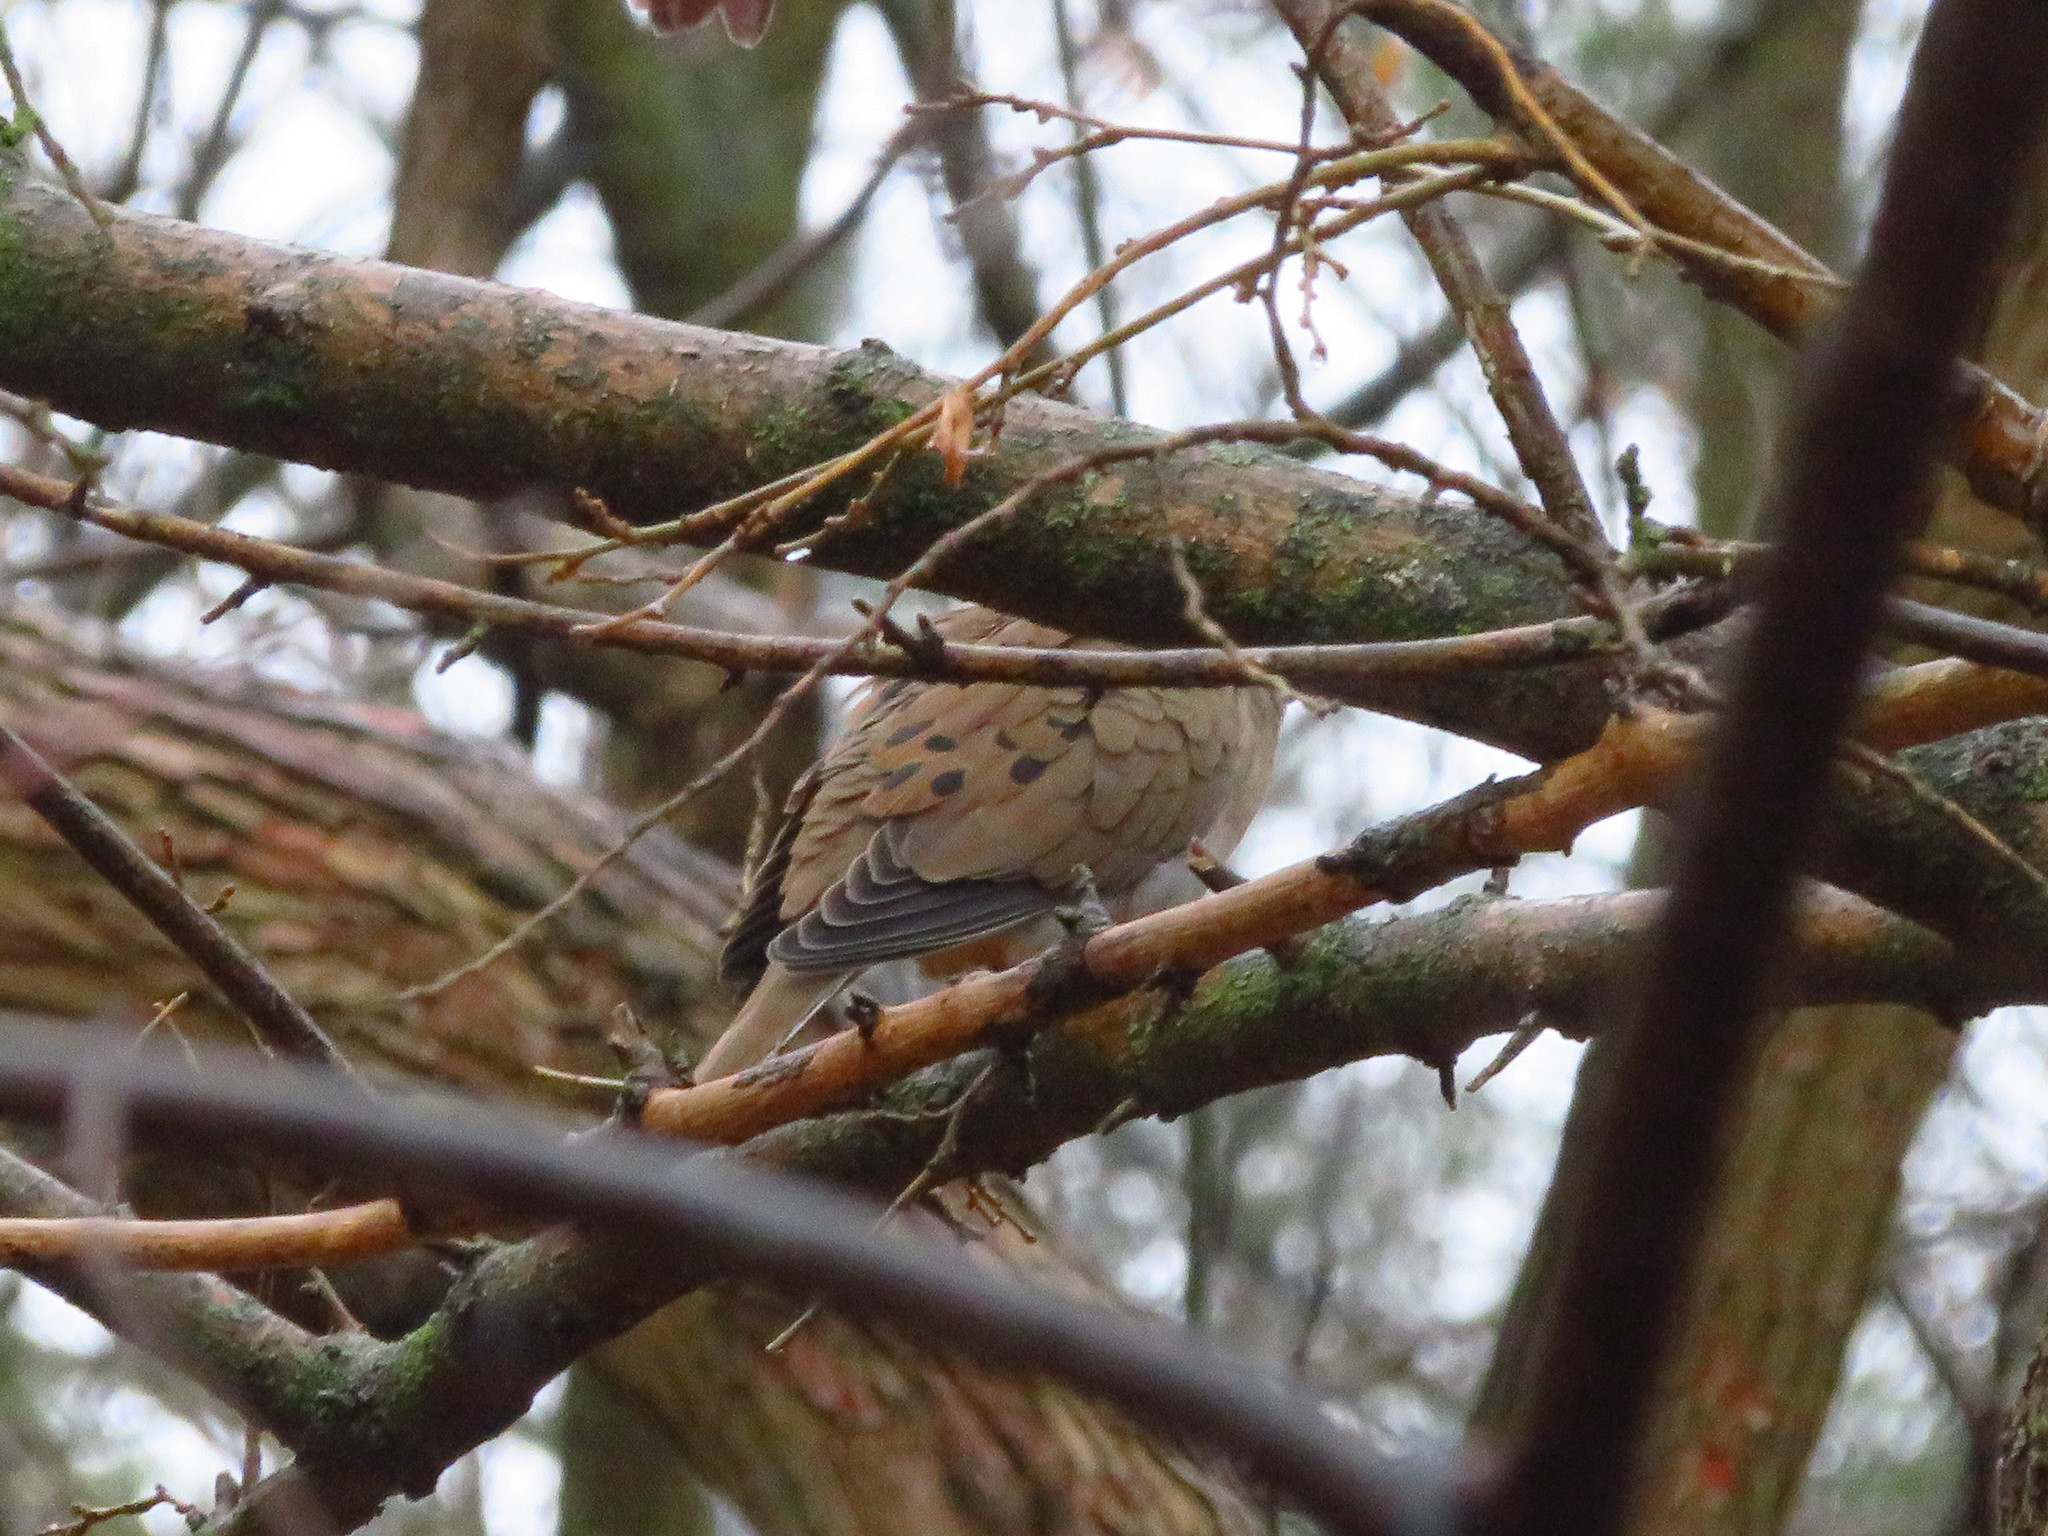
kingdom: Animalia
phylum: Chordata
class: Aves
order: Columbiformes
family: Columbidae
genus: Zenaida
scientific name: Zenaida macroura
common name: Mourning dove
